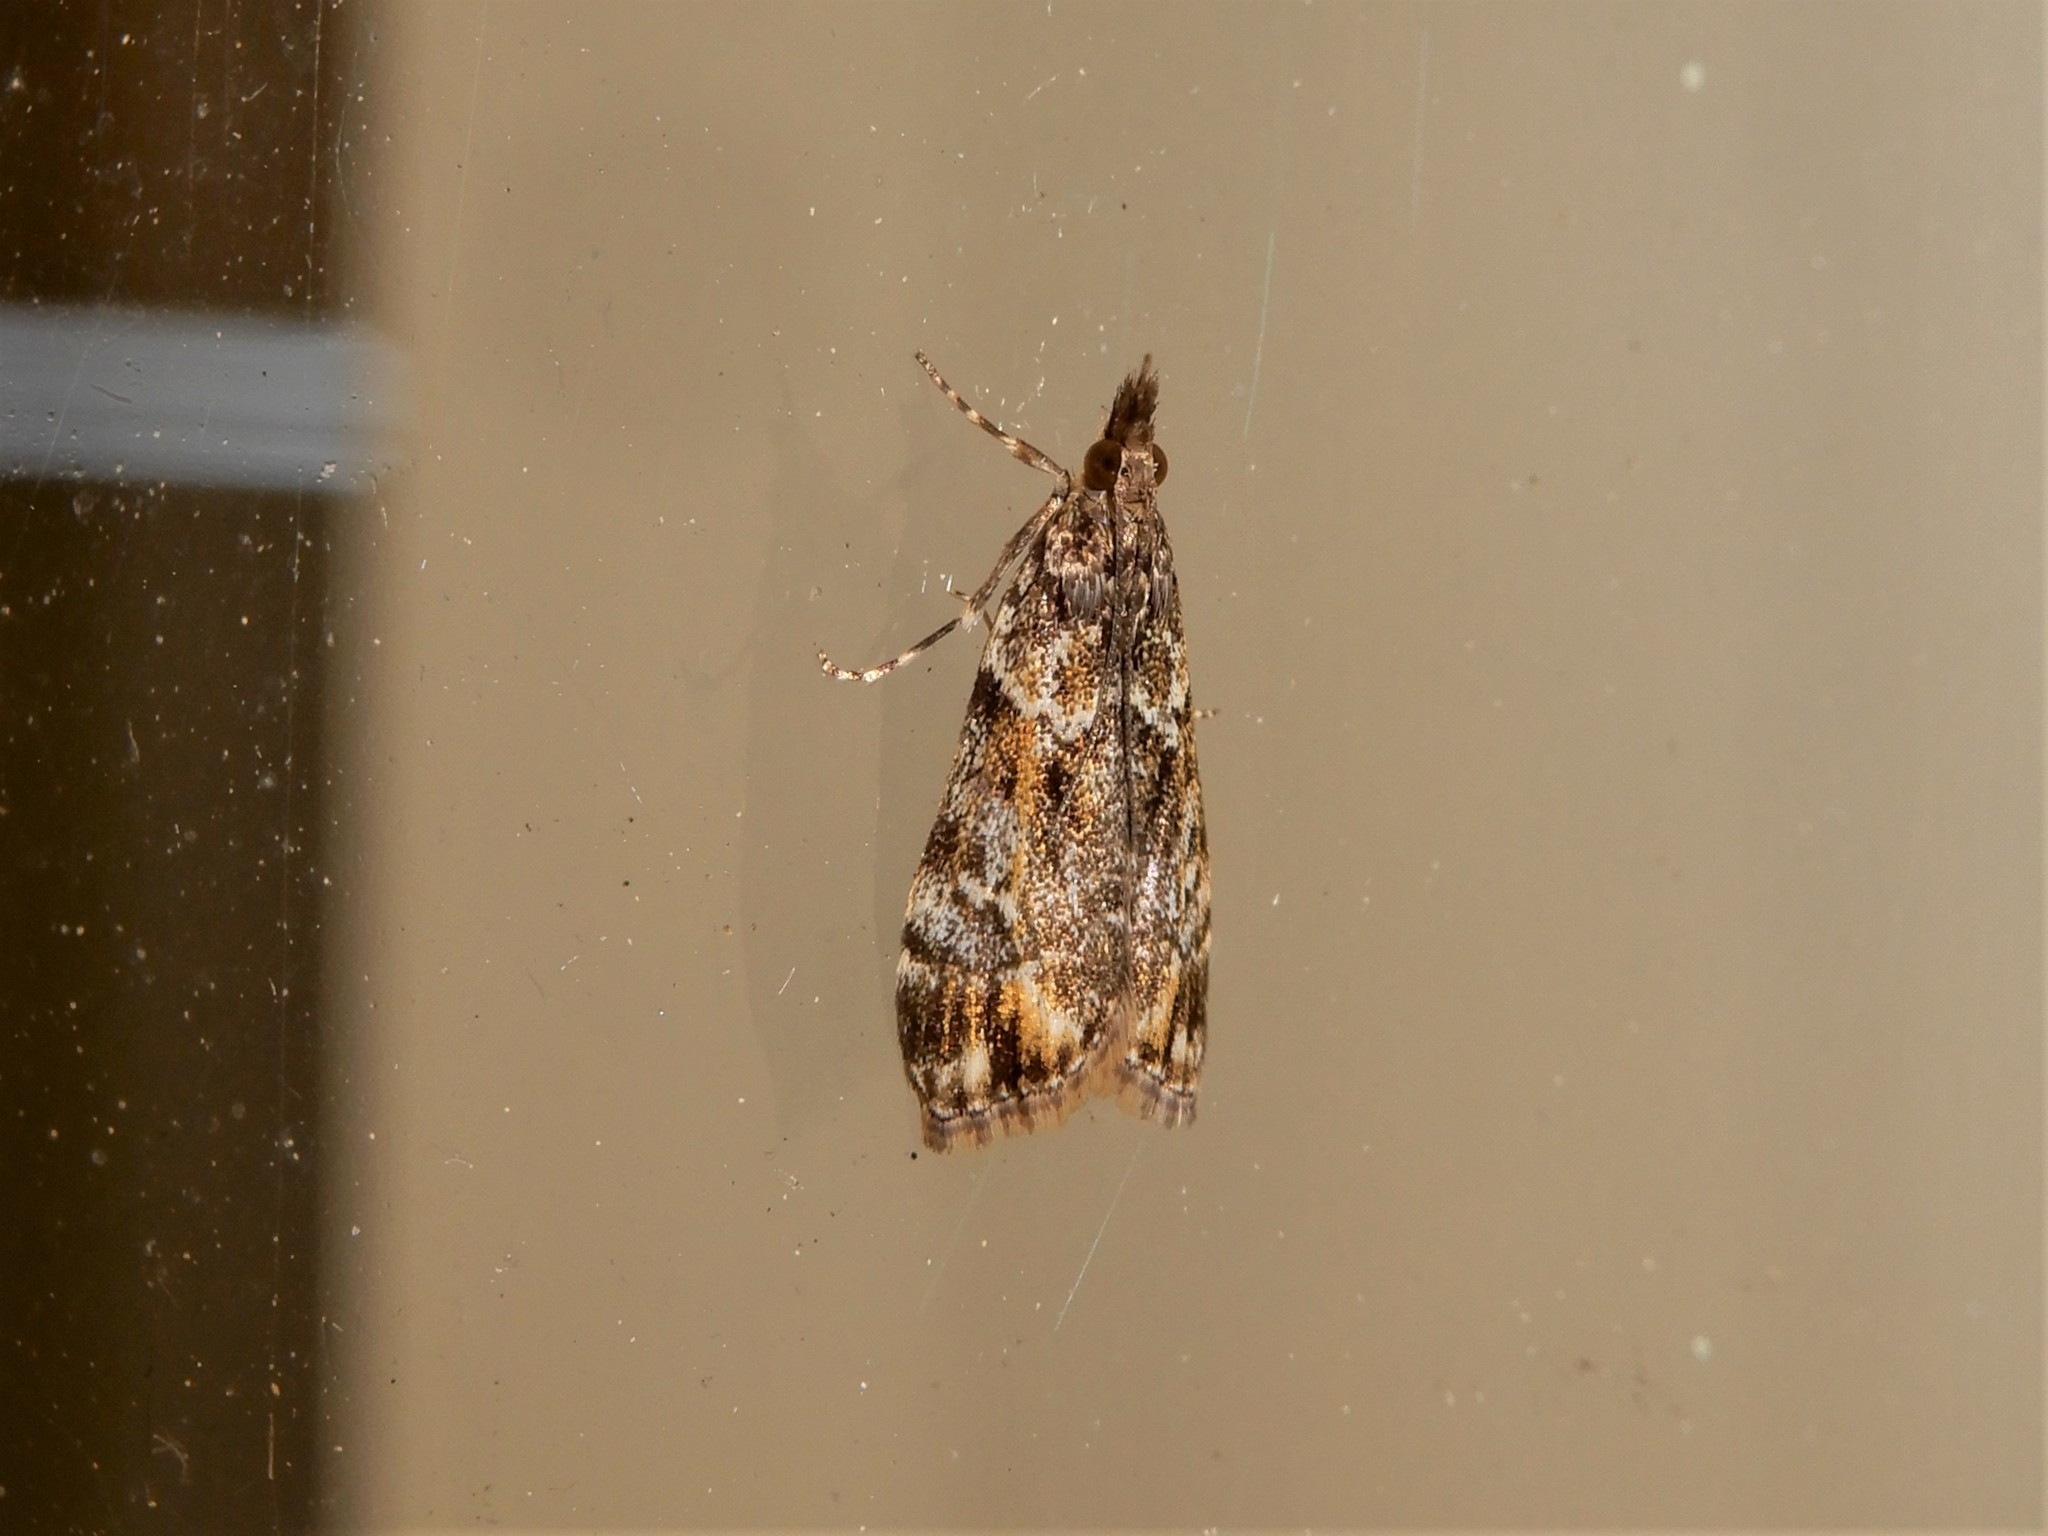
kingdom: Animalia
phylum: Arthropoda
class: Insecta
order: Lepidoptera
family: Crambidae
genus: Eudonia
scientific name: Eudonia minualis
